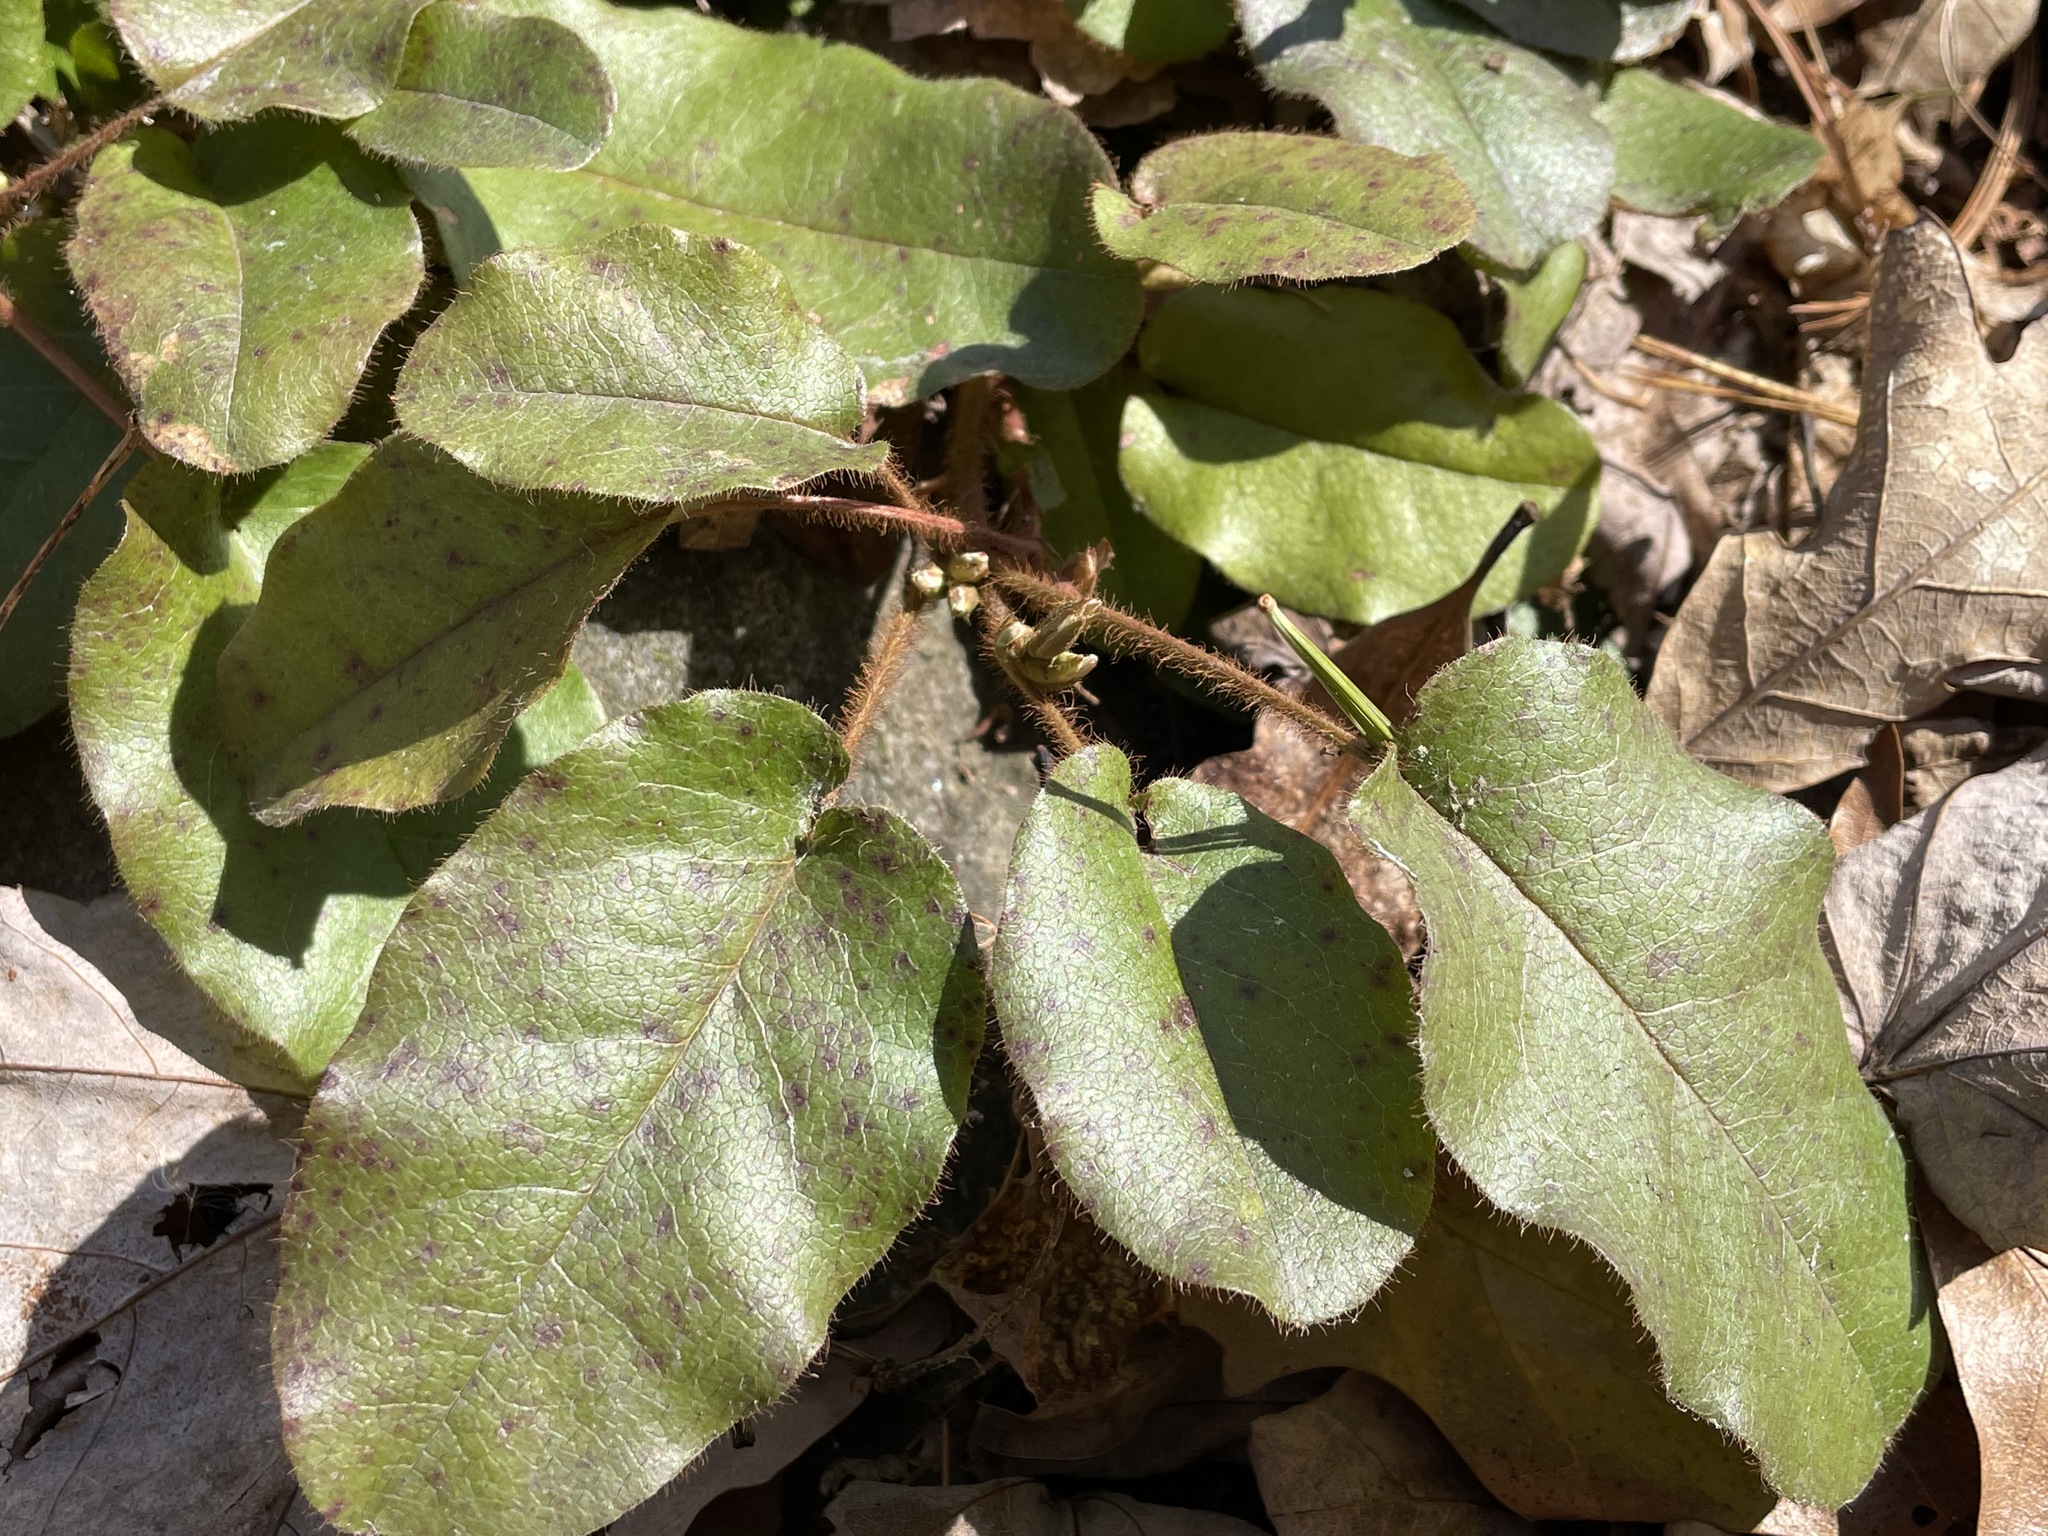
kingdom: Plantae
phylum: Tracheophyta
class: Magnoliopsida
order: Ericales
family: Ericaceae
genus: Epigaea
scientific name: Epigaea repens
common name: Gravelroot
